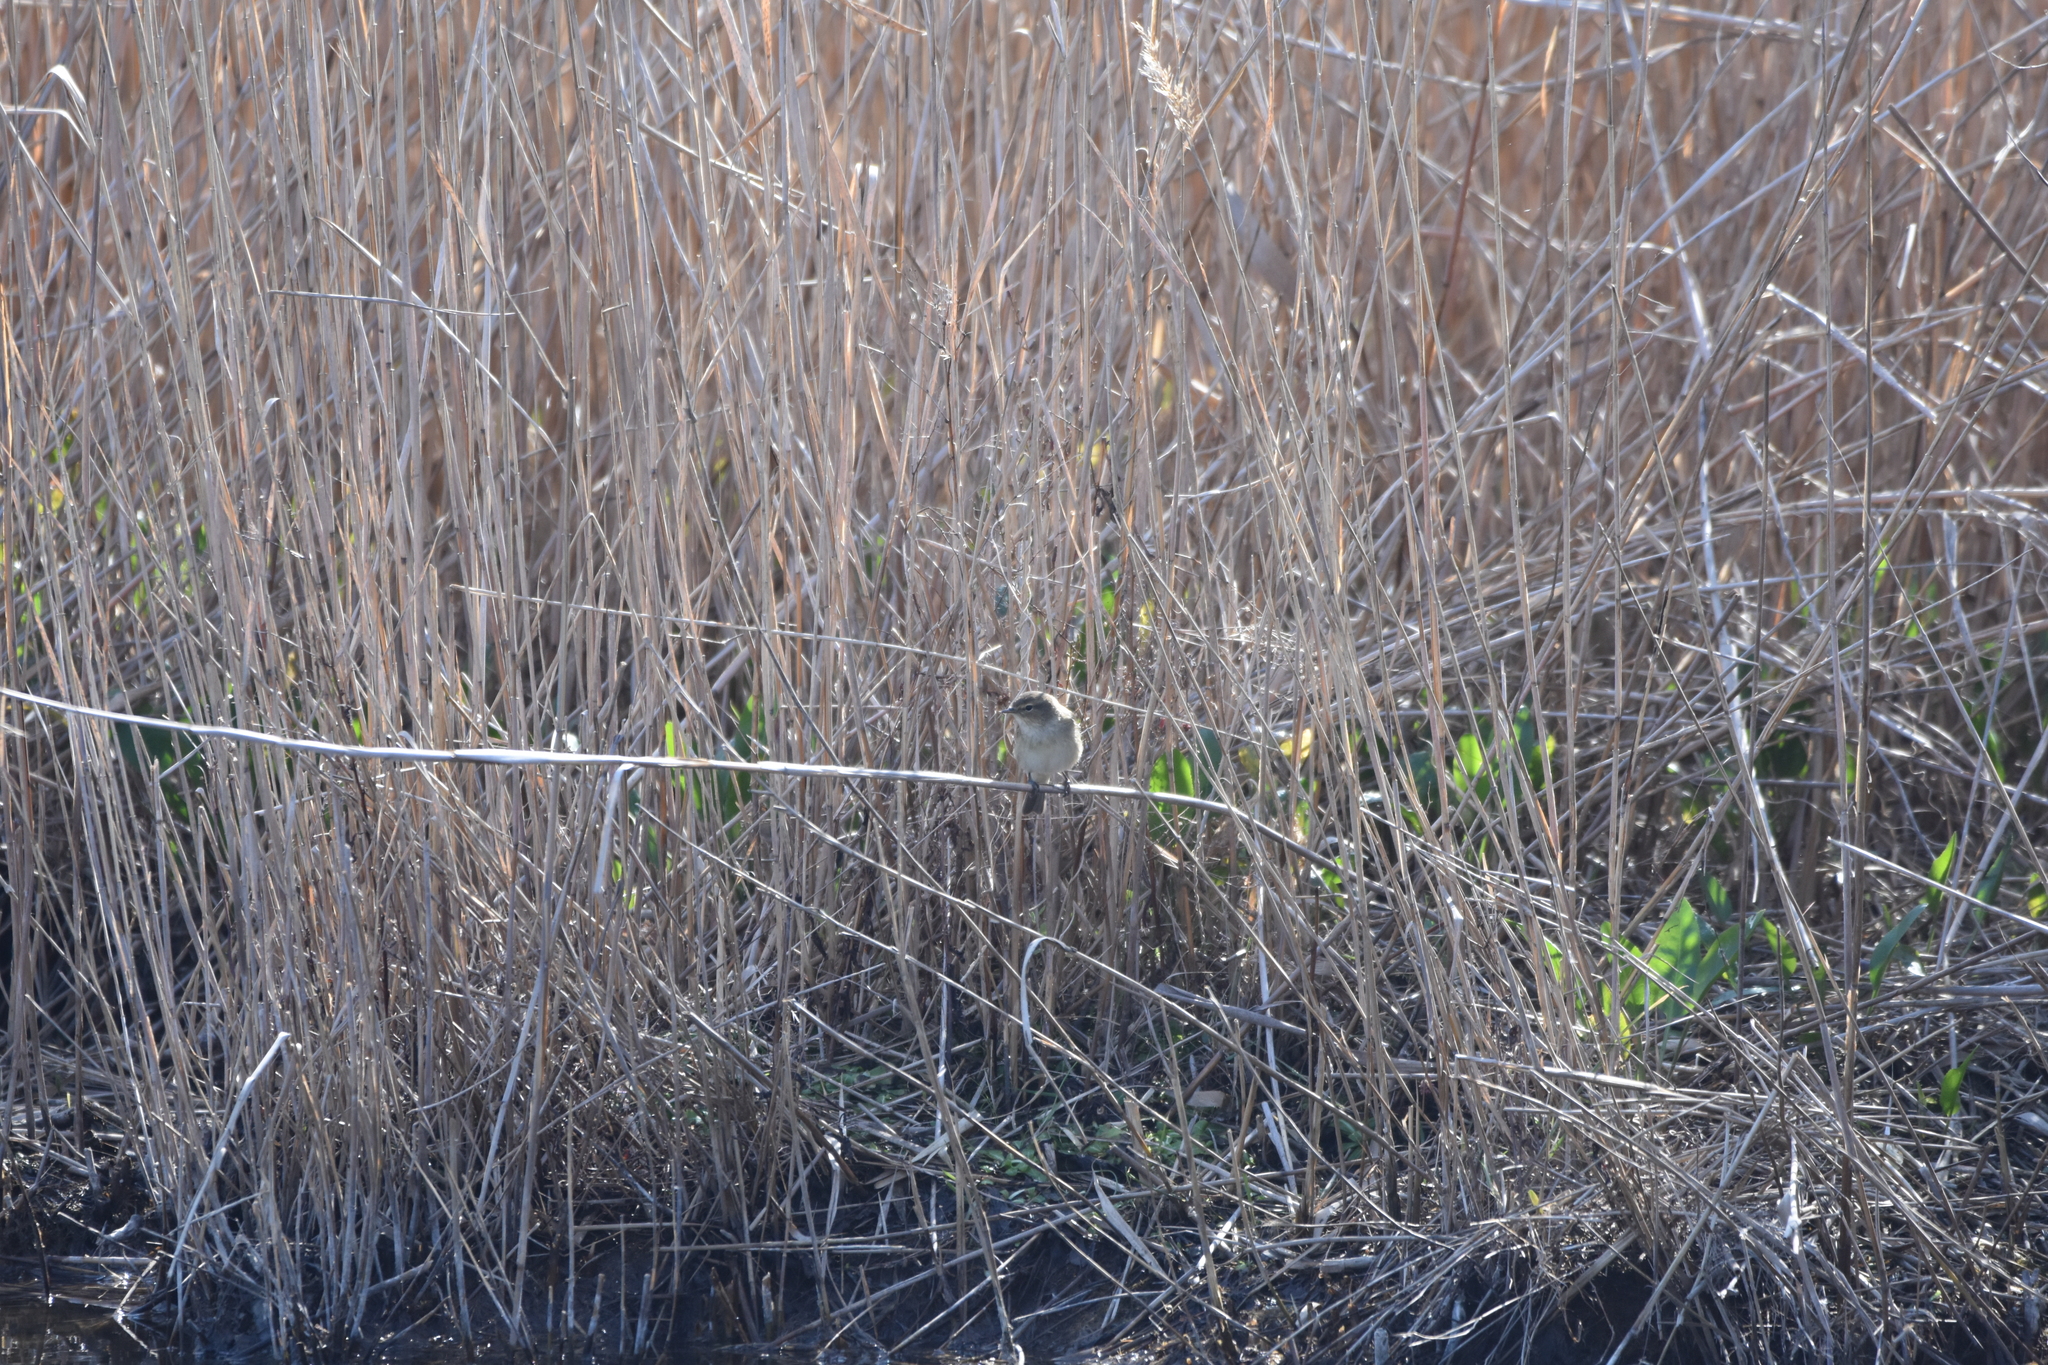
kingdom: Animalia
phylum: Chordata
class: Aves
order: Passeriformes
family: Phylloscopidae
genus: Phylloscopus
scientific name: Phylloscopus collybita
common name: Common chiffchaff
